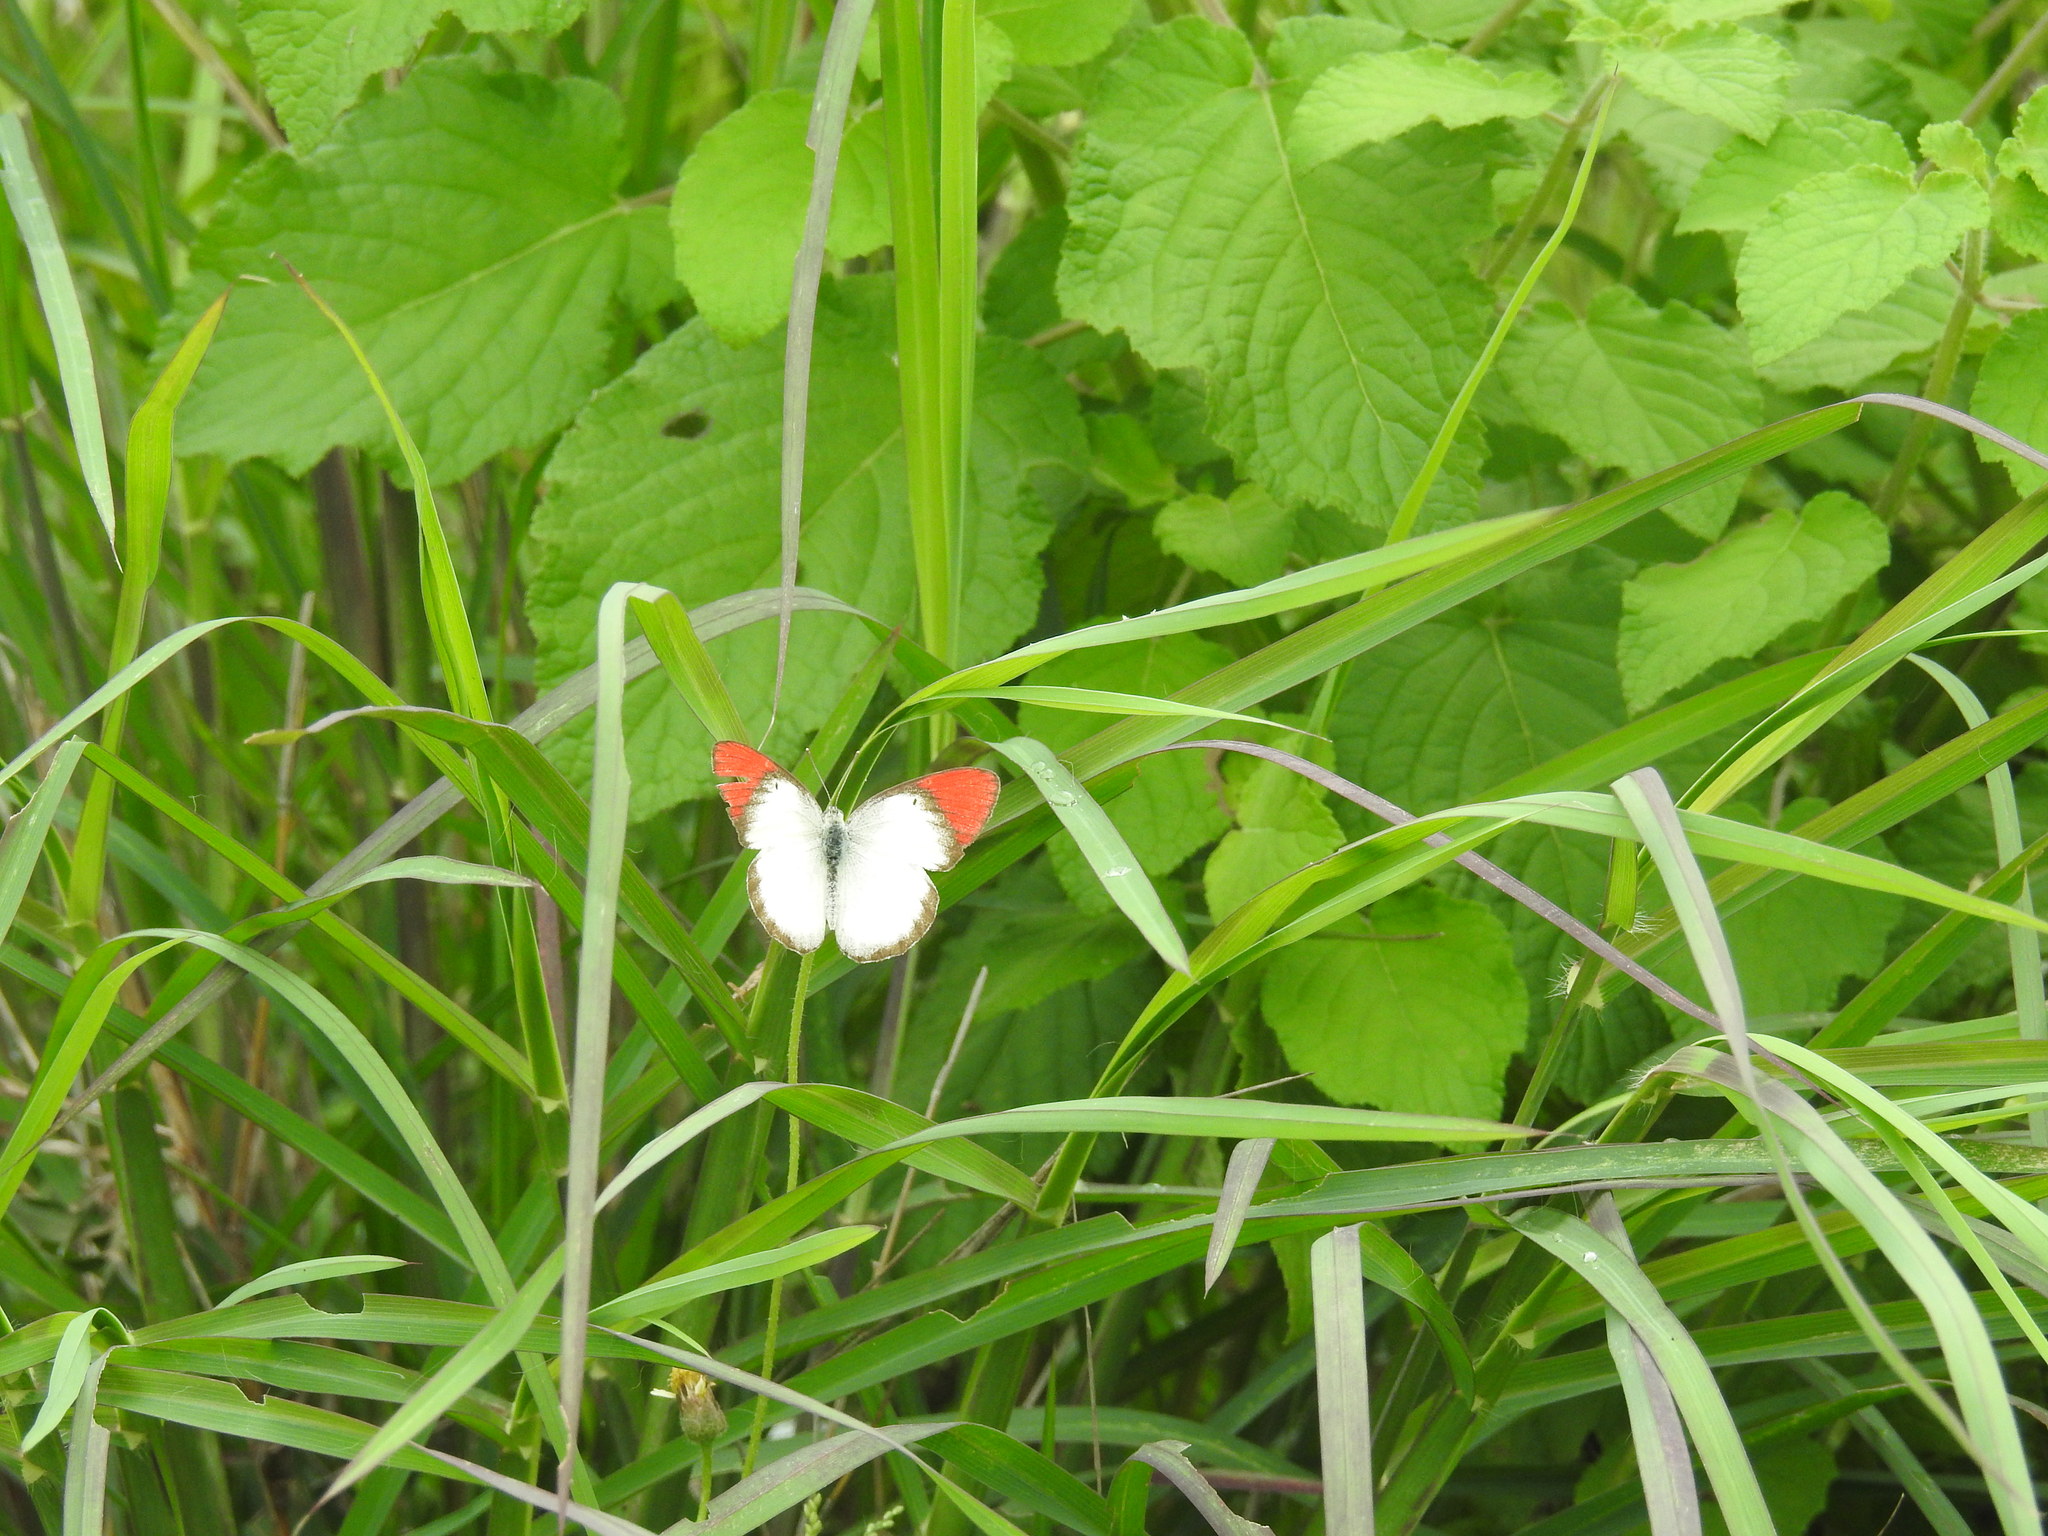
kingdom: Animalia
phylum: Arthropoda
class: Insecta
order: Lepidoptera
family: Pieridae
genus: Colotis
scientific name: Colotis danae
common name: Crimson tip
